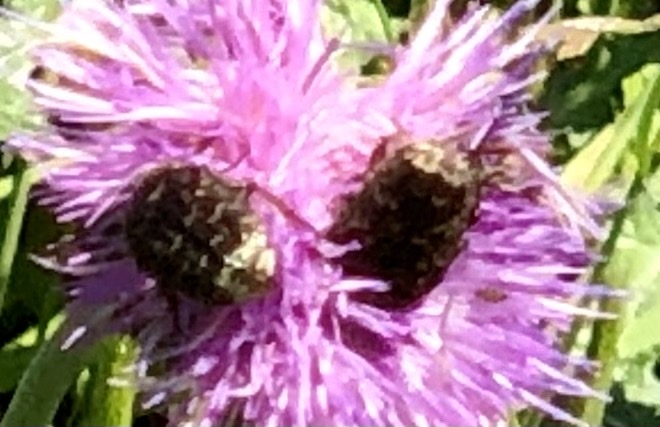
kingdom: Animalia
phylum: Arthropoda
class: Insecta
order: Coleoptera
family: Scarabaeidae
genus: Euphoria
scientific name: Euphoria sepulcralis
